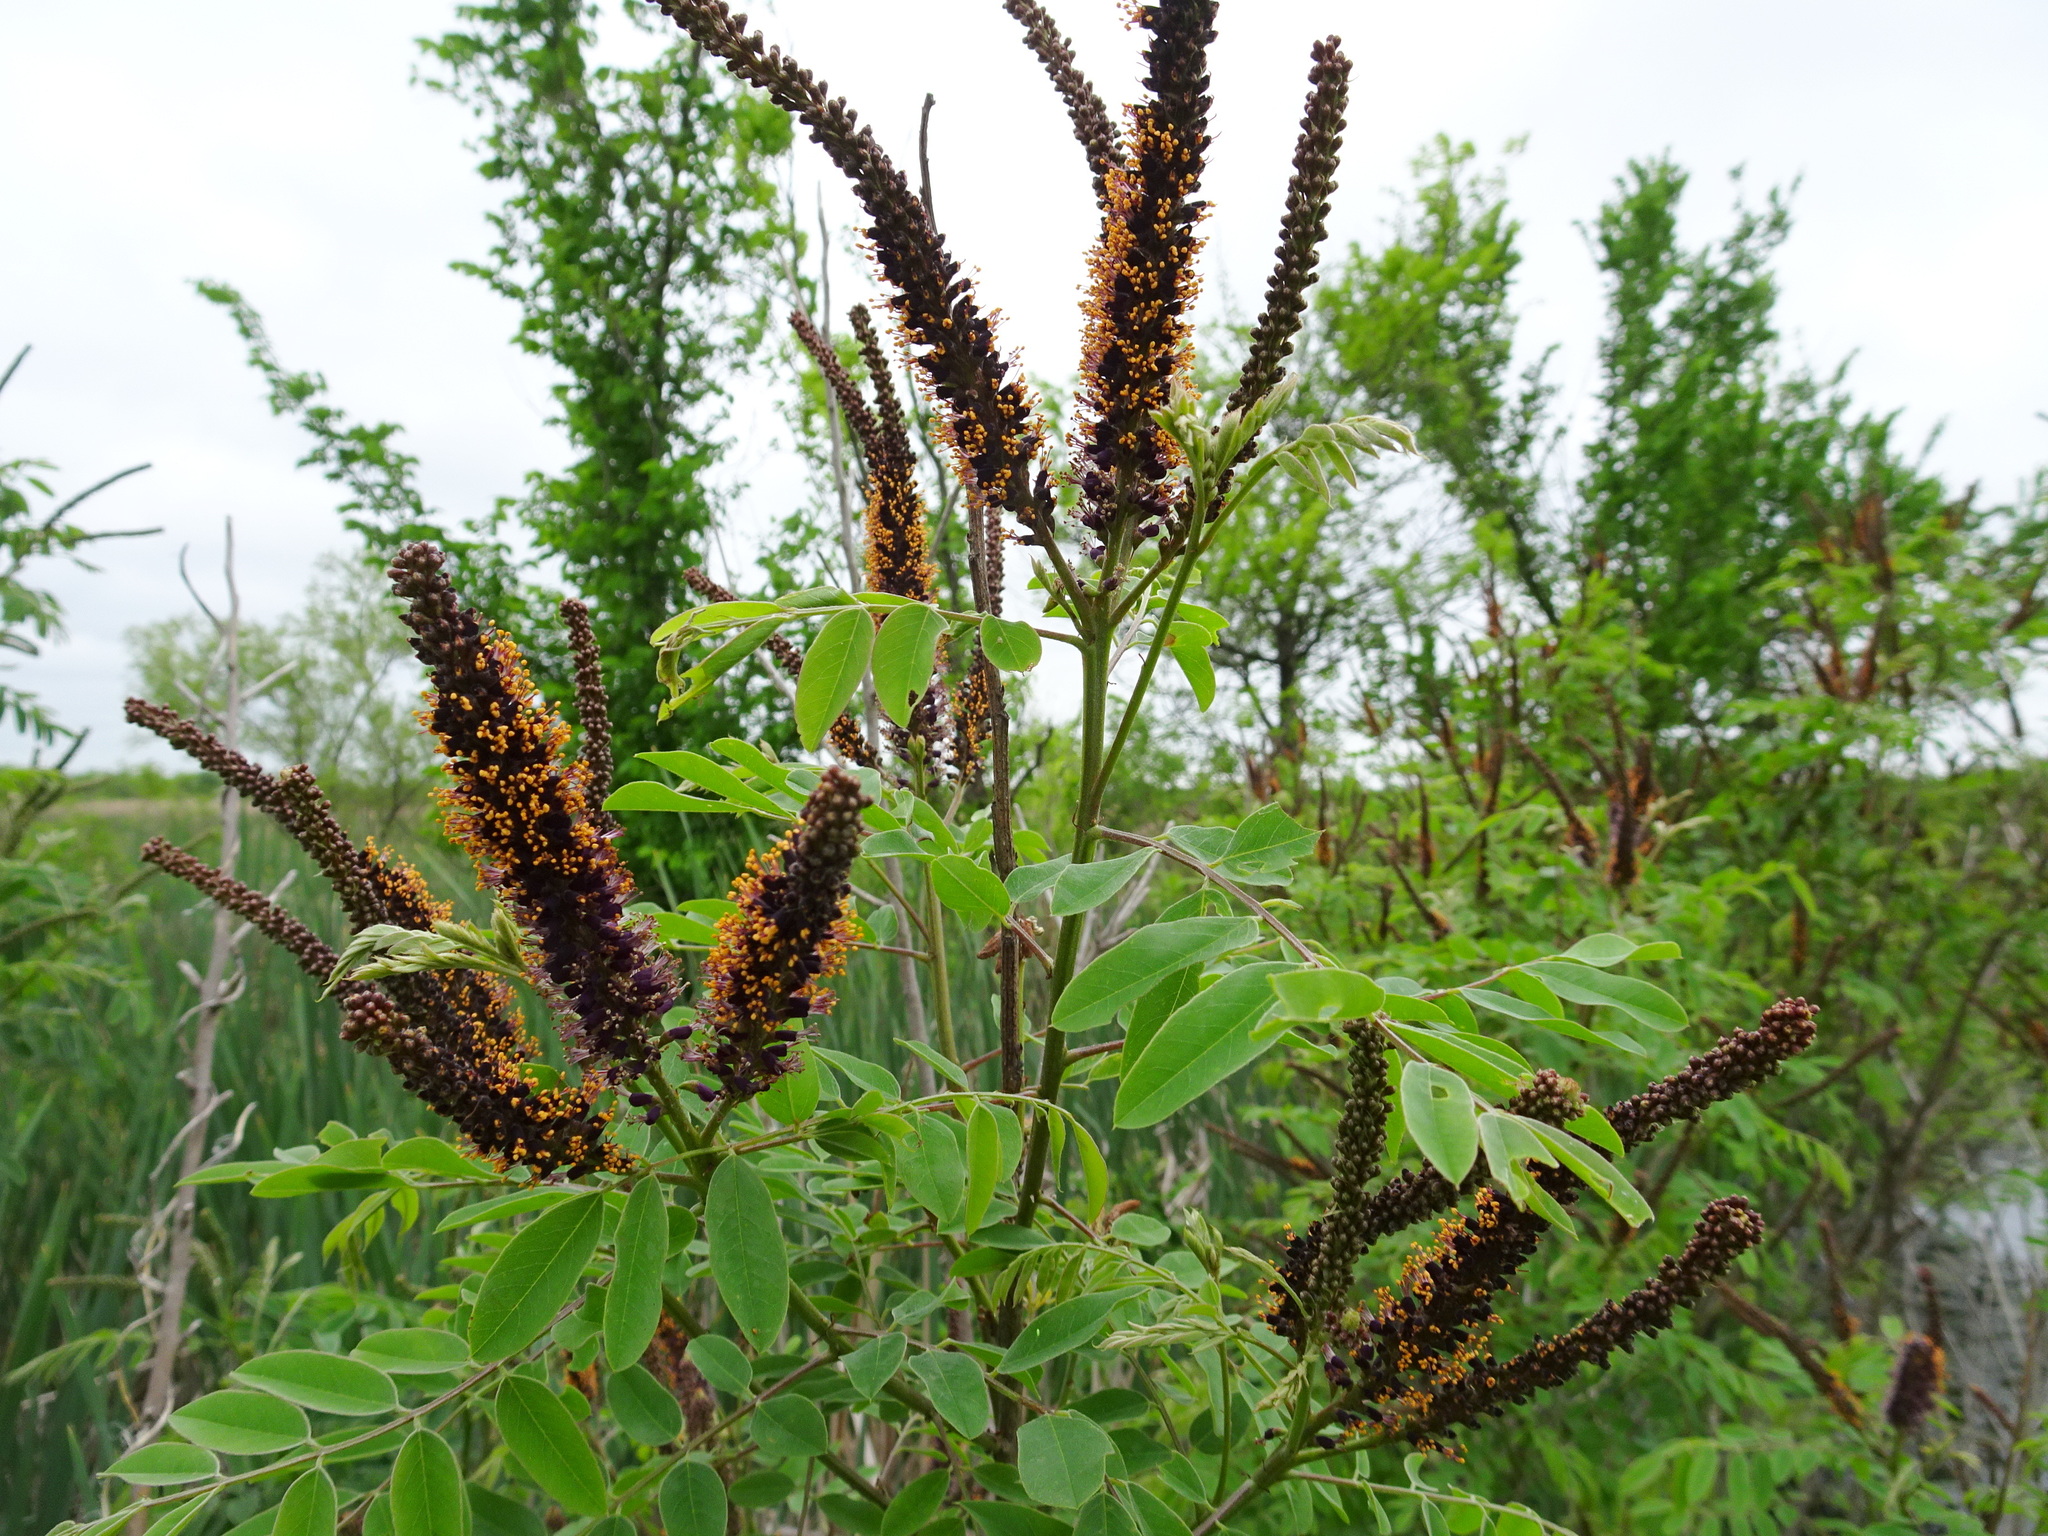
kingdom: Plantae
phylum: Tracheophyta
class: Magnoliopsida
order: Fabales
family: Fabaceae
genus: Amorpha
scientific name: Amorpha fruticosa
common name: False indigo
